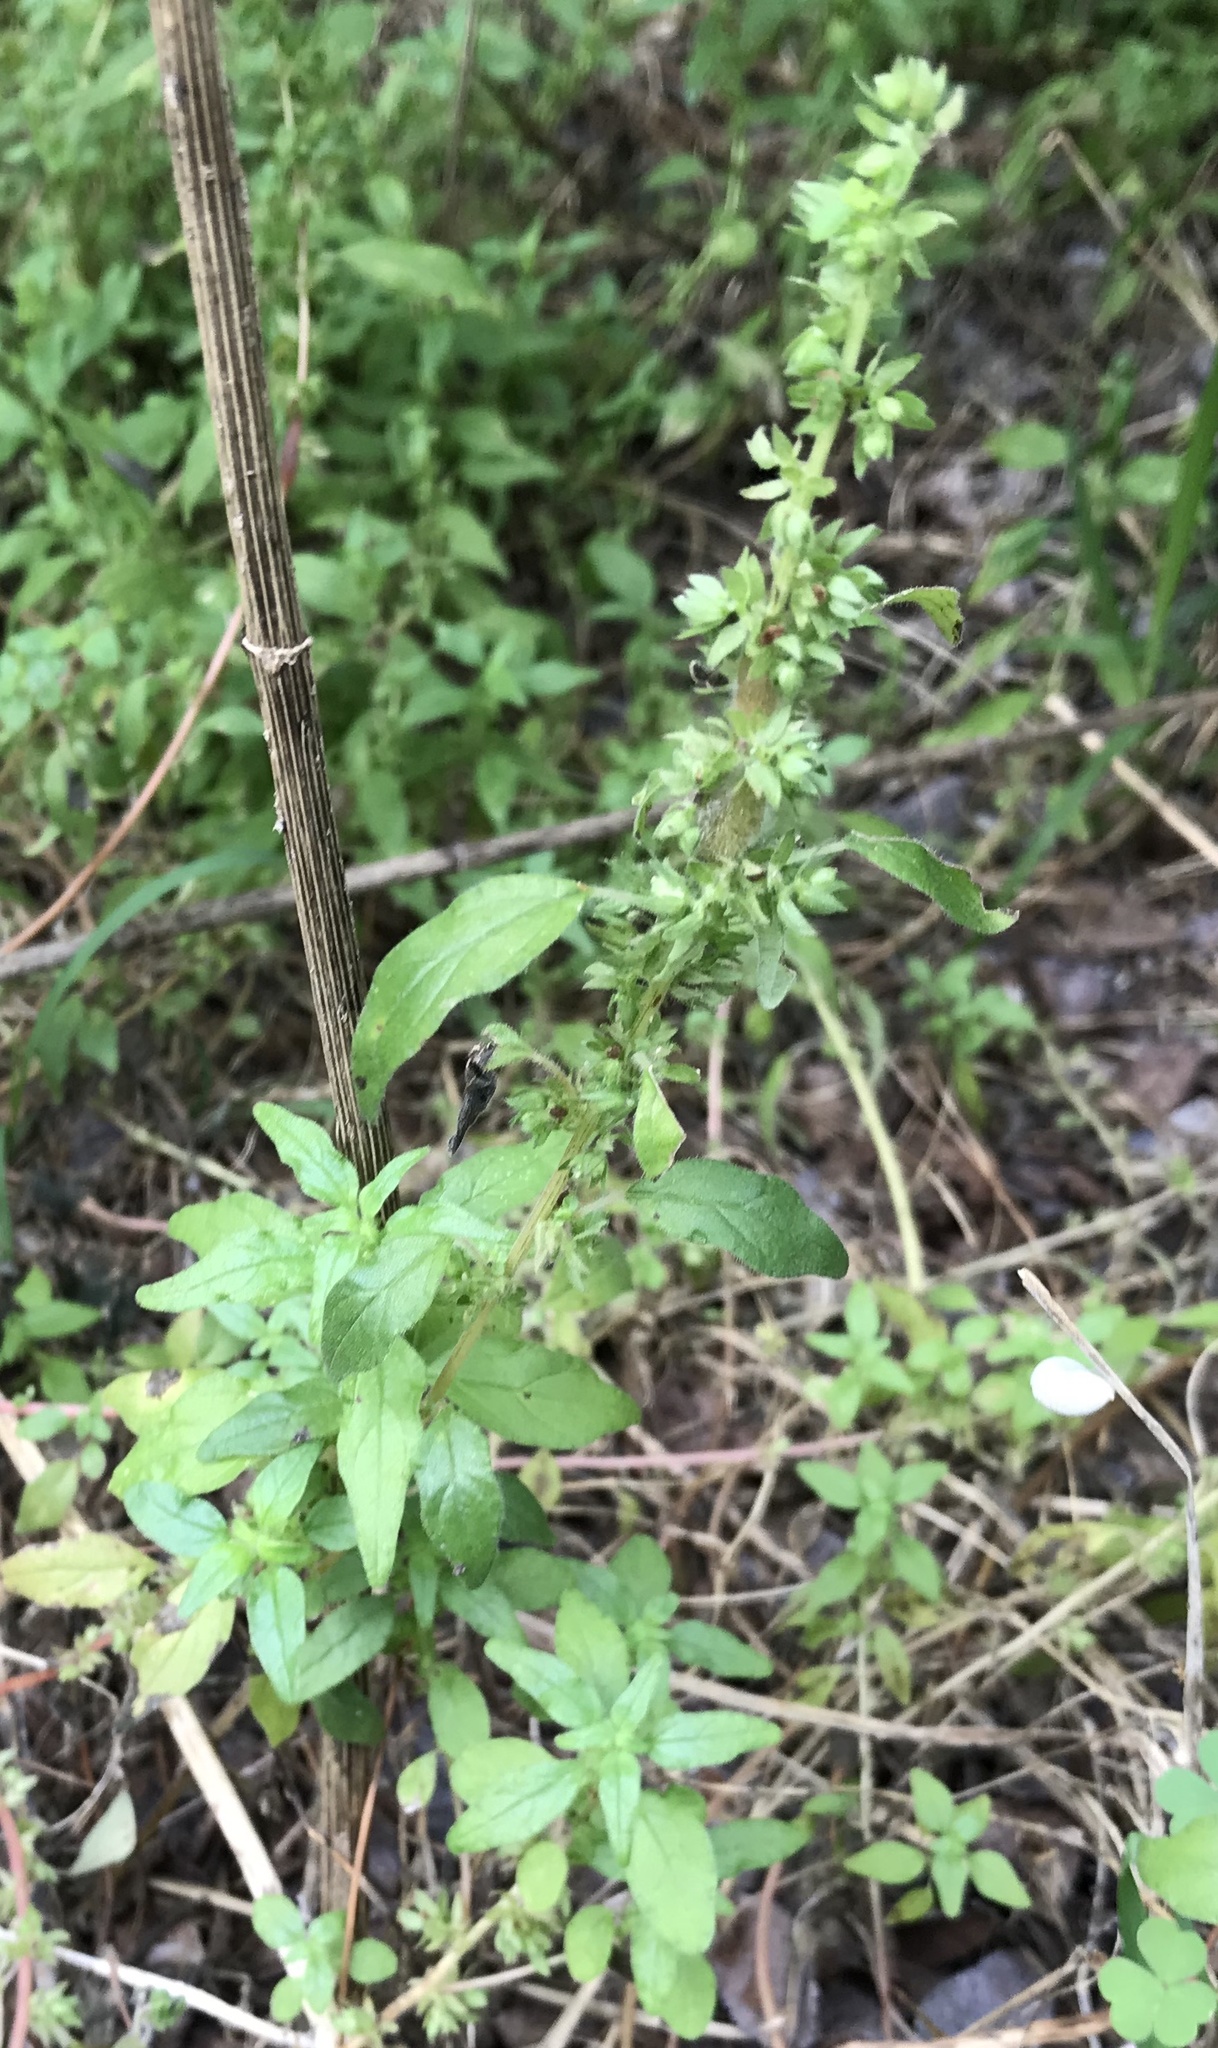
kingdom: Plantae
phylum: Tracheophyta
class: Magnoliopsida
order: Rosales
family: Urticaceae
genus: Parietaria
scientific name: Parietaria pensylvanica
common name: Pennsylvania pellitory
